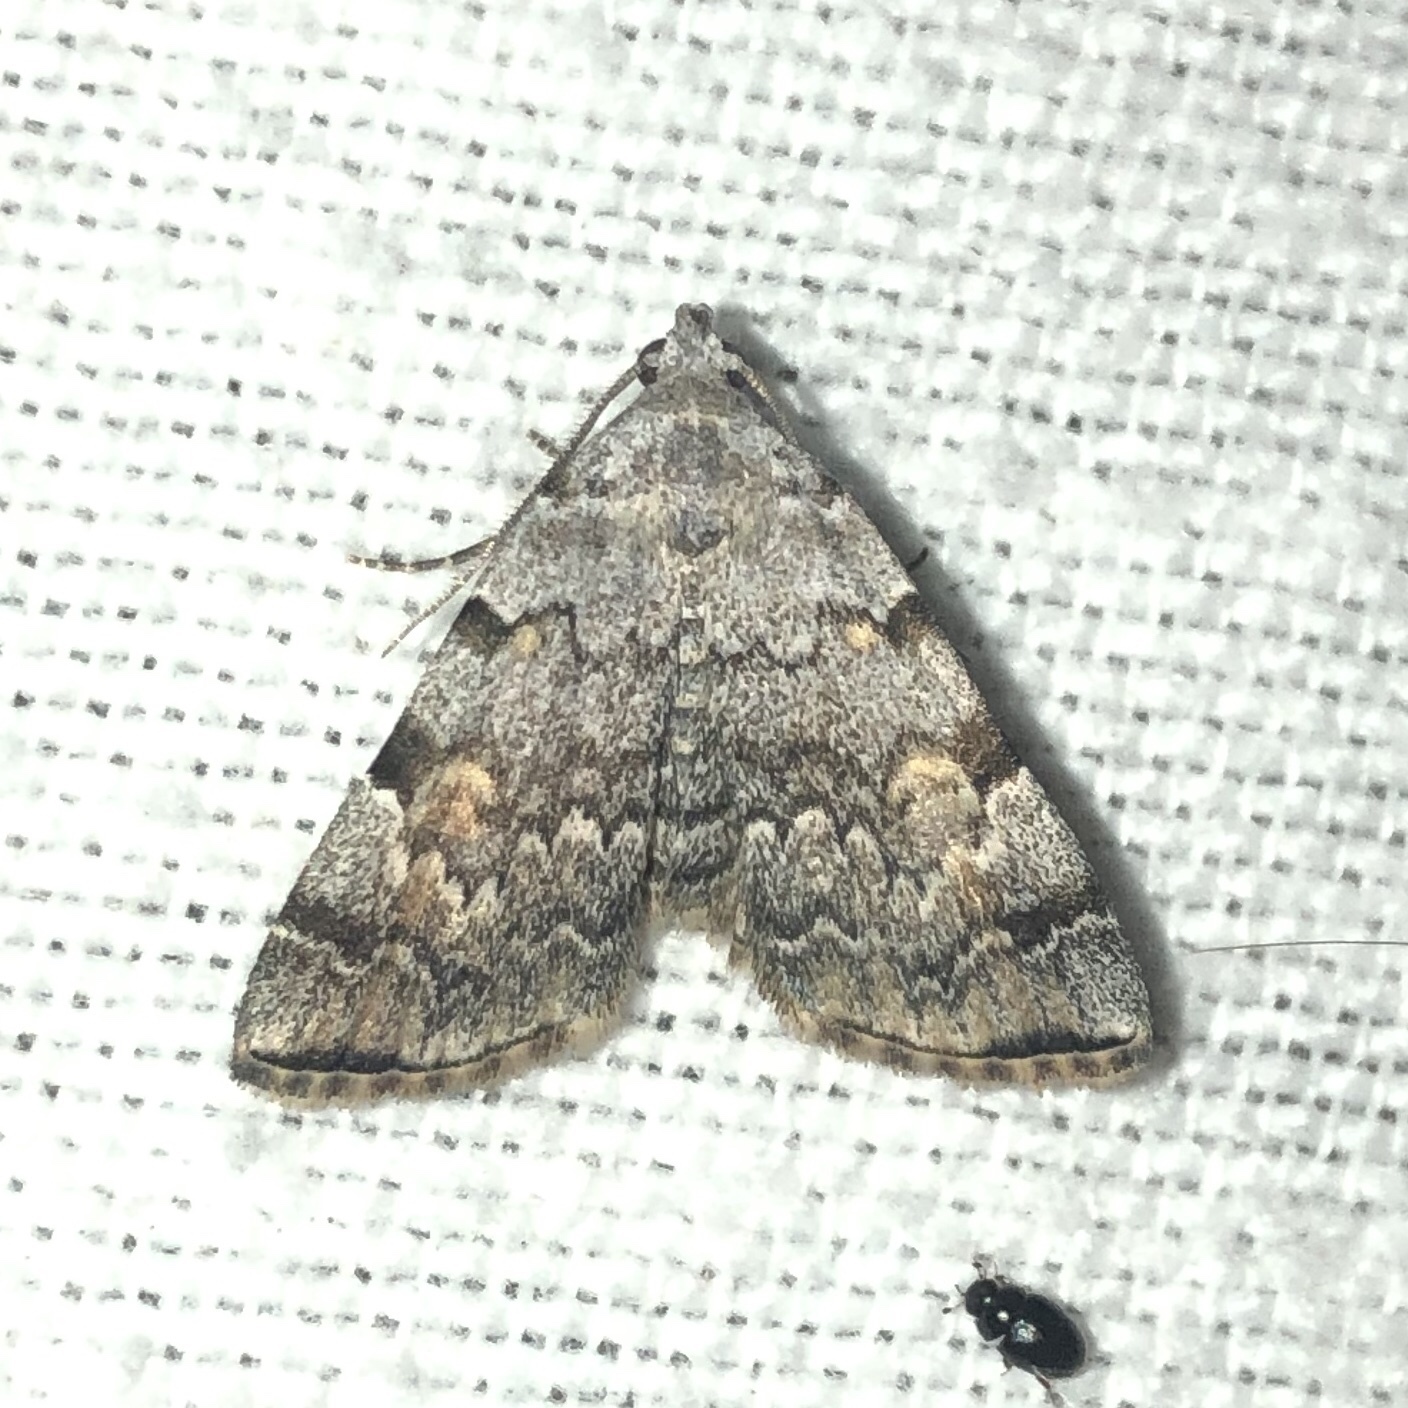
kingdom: Animalia
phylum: Arthropoda
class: Insecta
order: Lepidoptera
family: Erebidae
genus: Idia
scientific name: Idia americalis
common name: American idia moth
